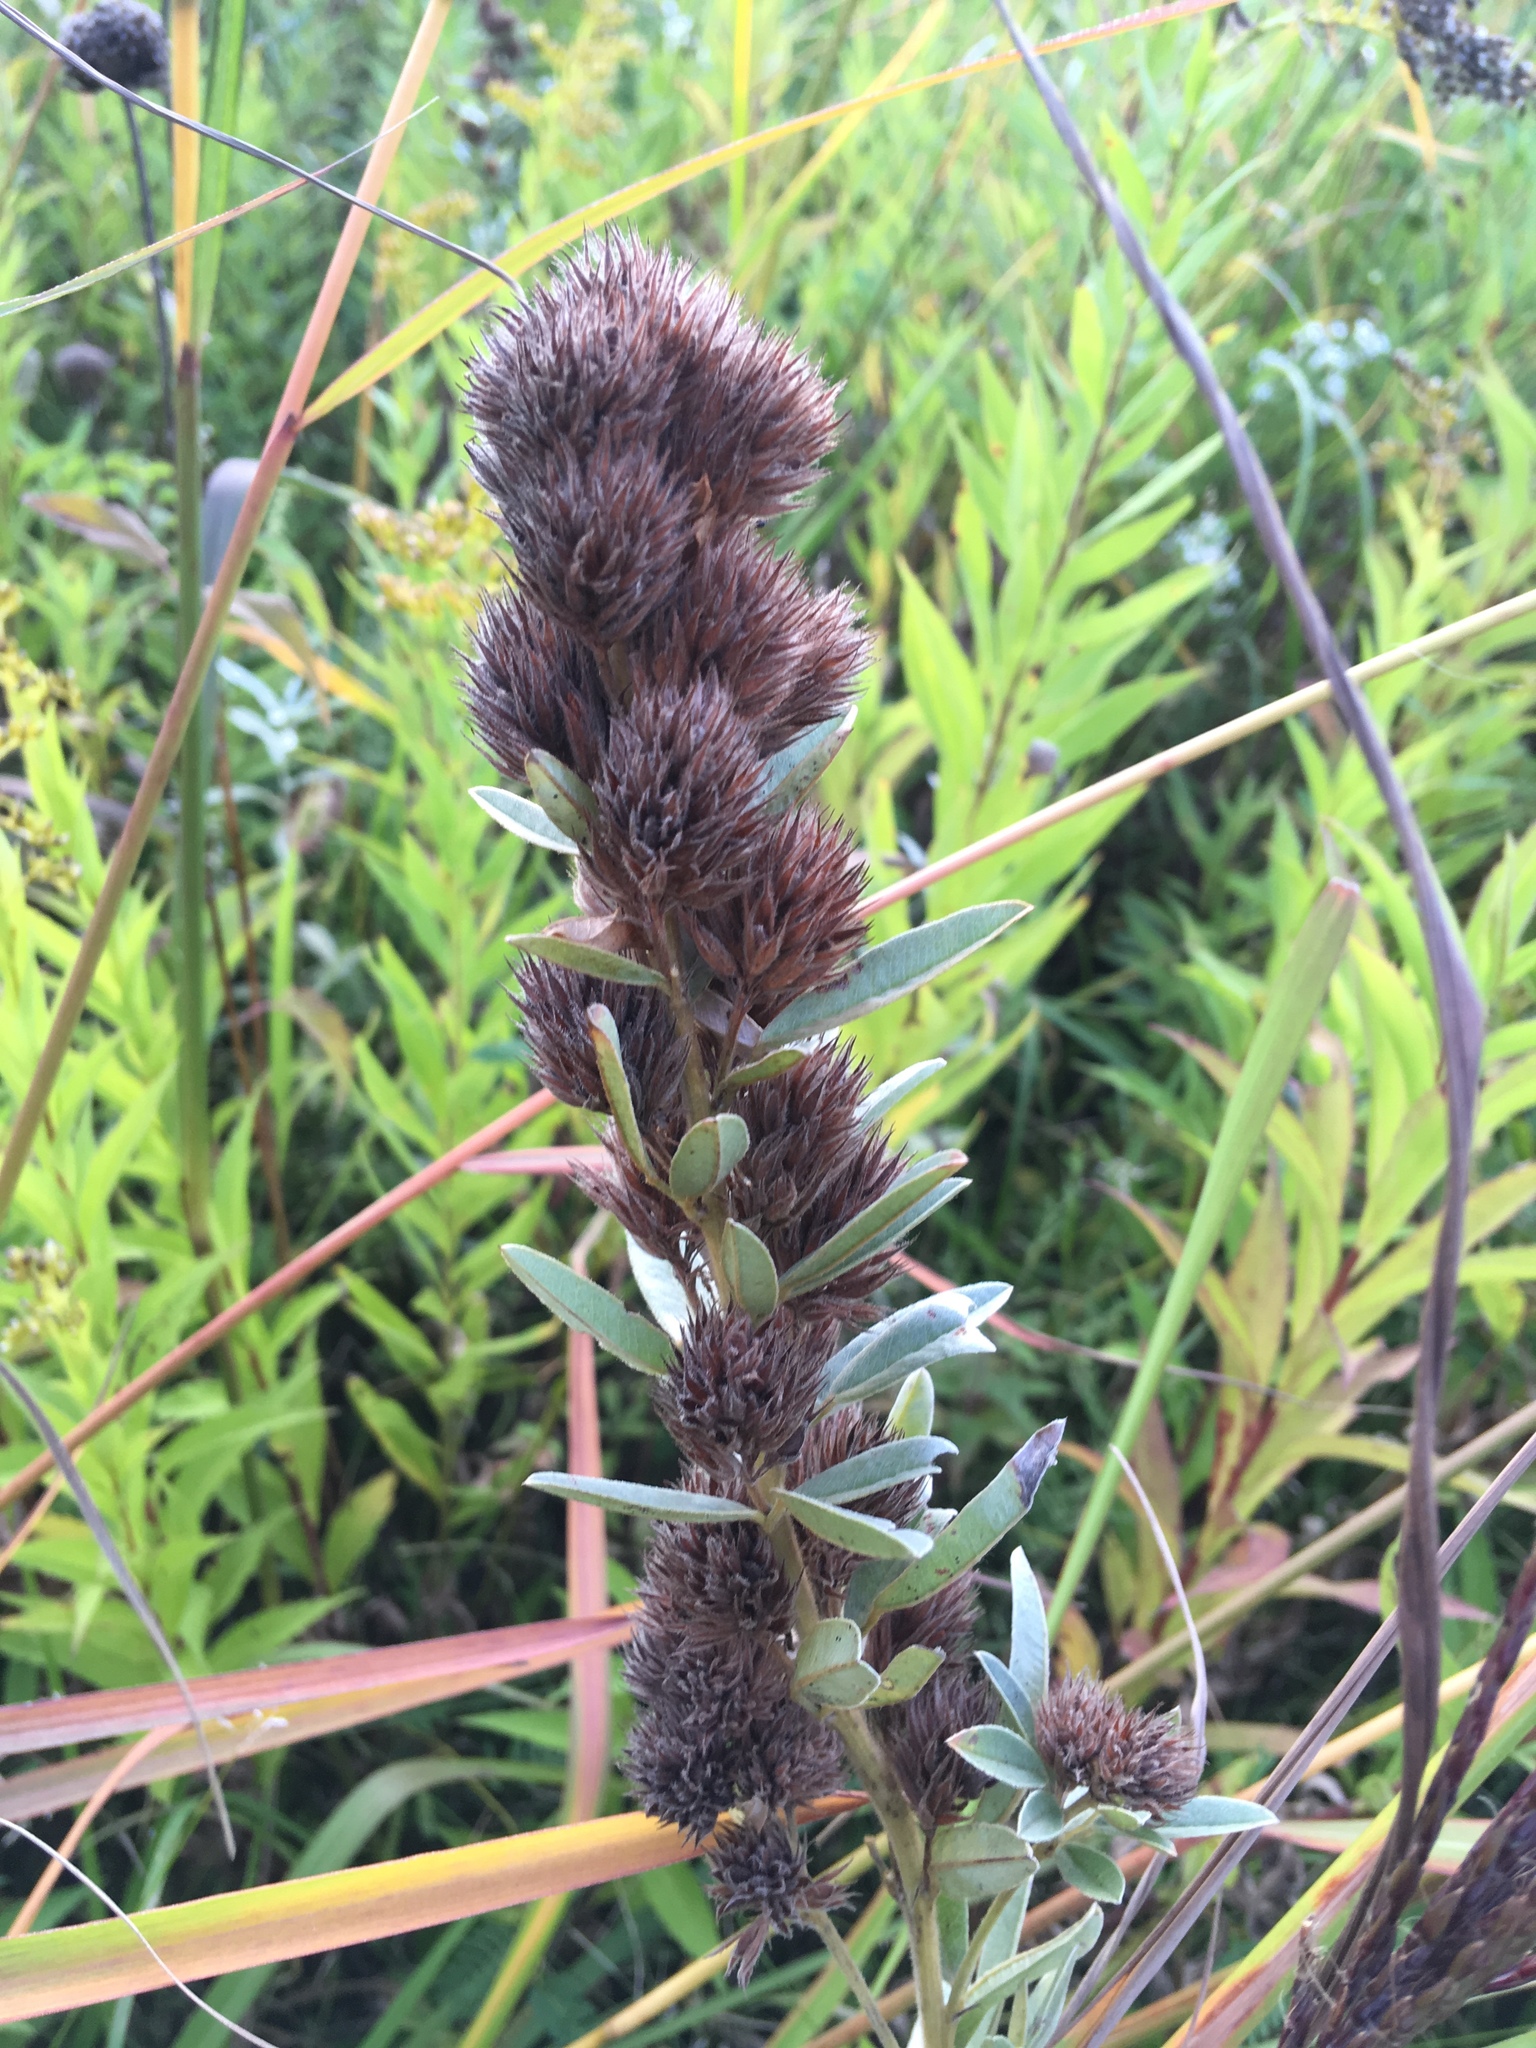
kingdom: Plantae
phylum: Tracheophyta
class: Magnoliopsida
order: Fabales
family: Fabaceae
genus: Lespedeza
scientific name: Lespedeza capitata
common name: Dusty clover
